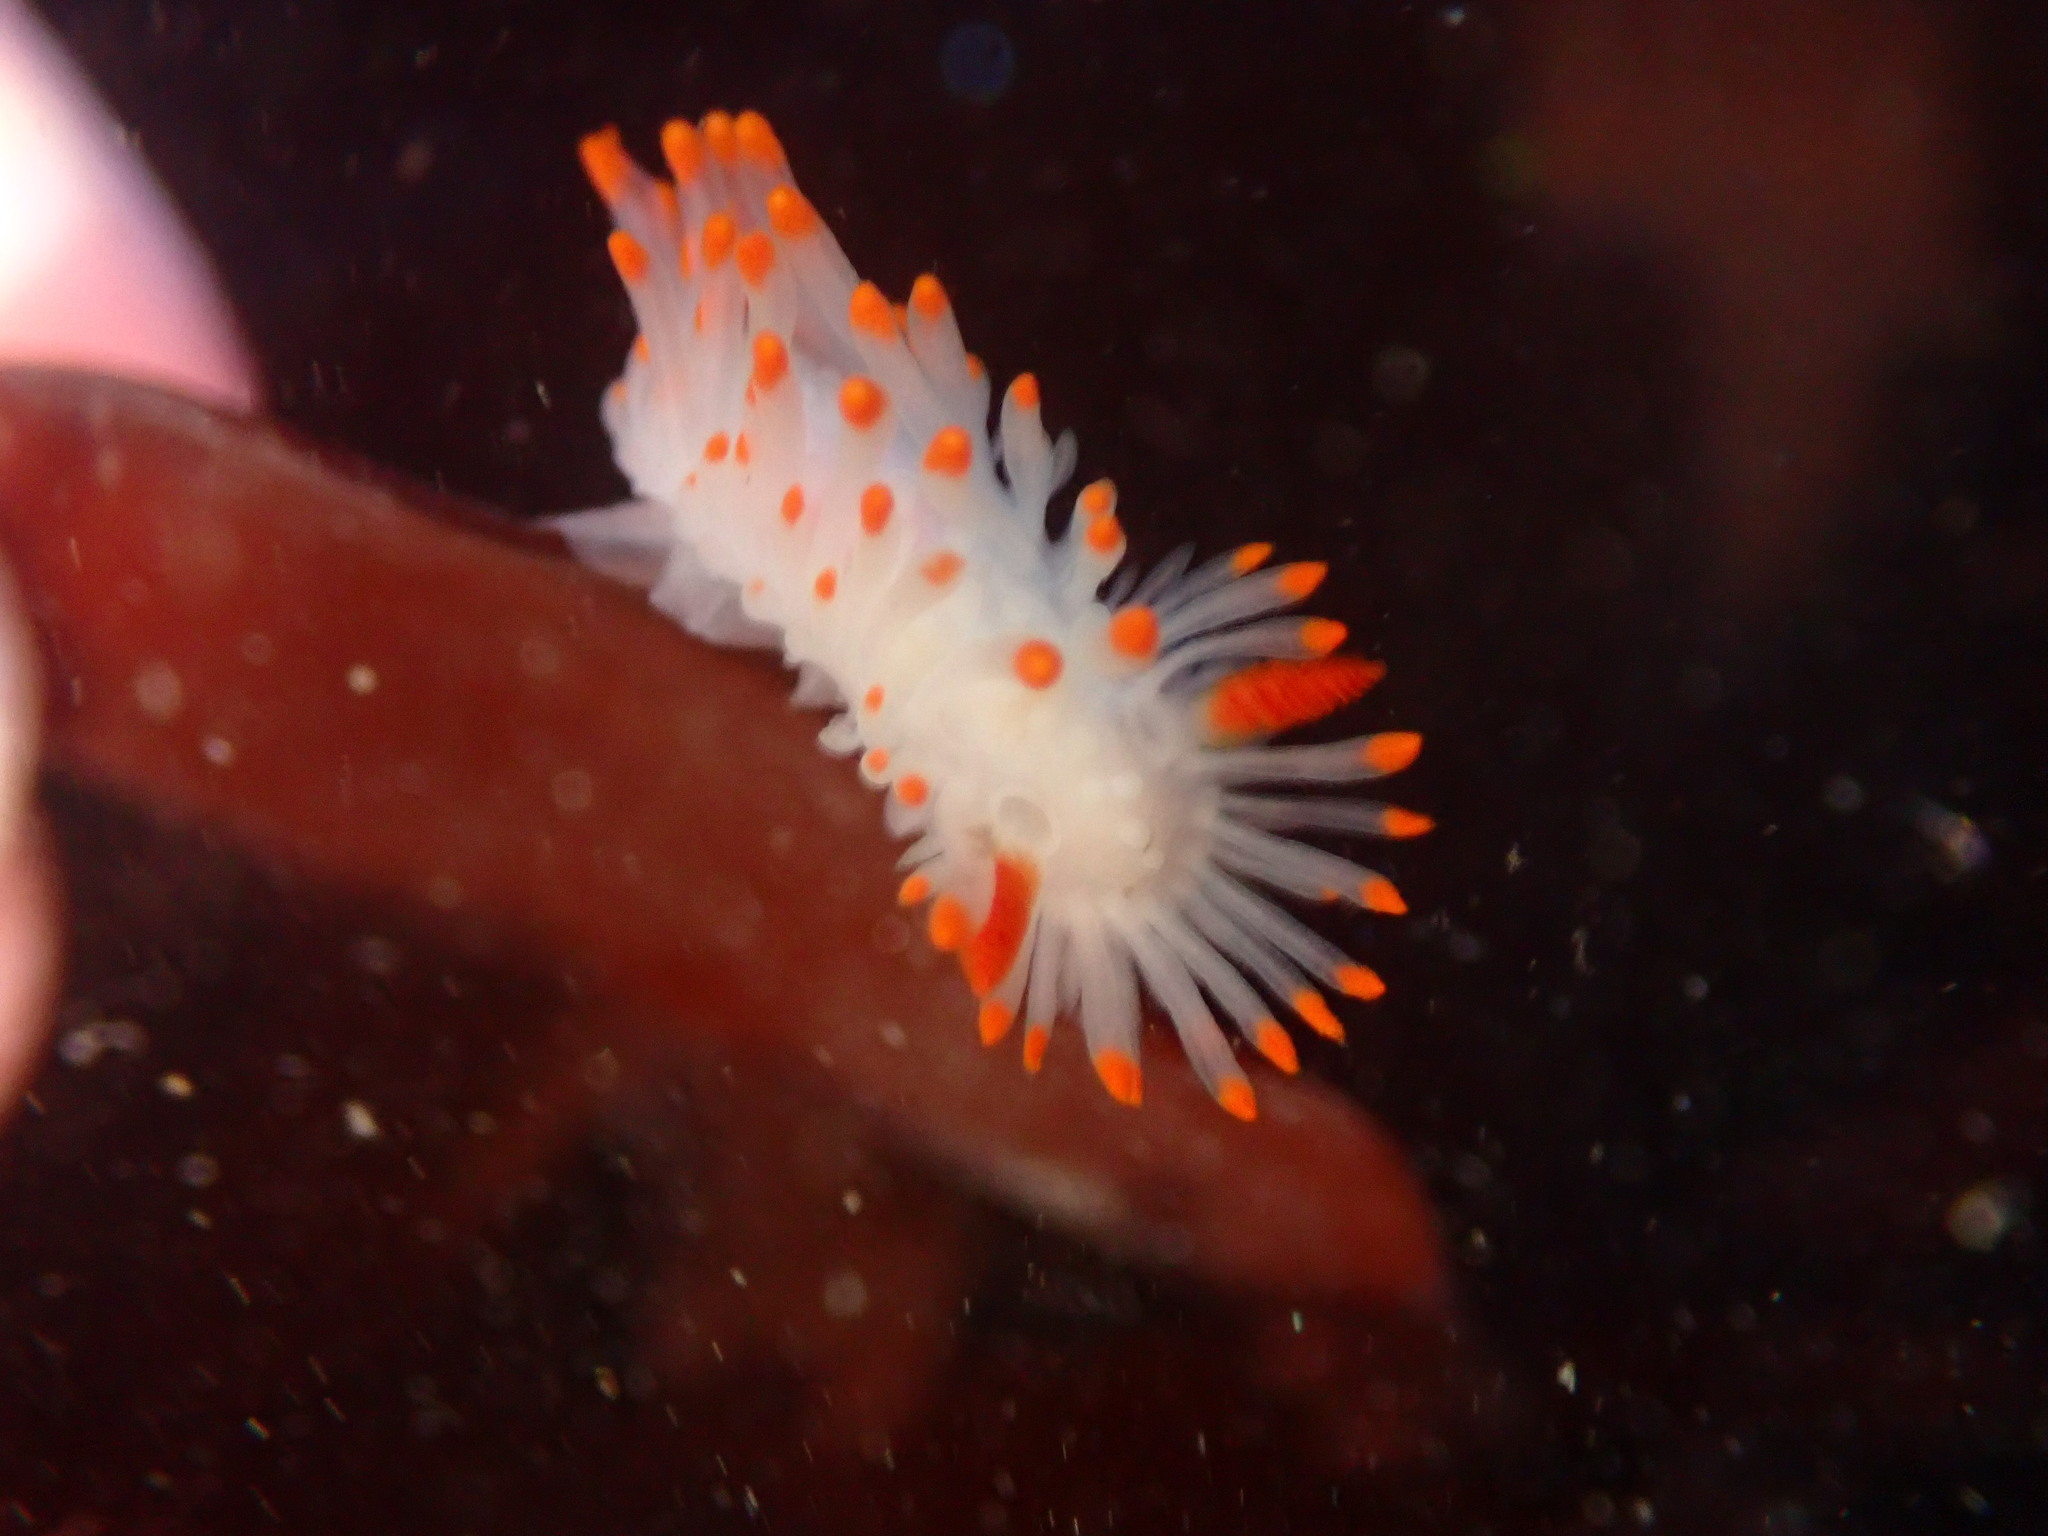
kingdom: Animalia
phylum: Mollusca
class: Gastropoda
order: Nudibranchia
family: Polyceridae
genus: Limacia
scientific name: Limacia cockerelli
